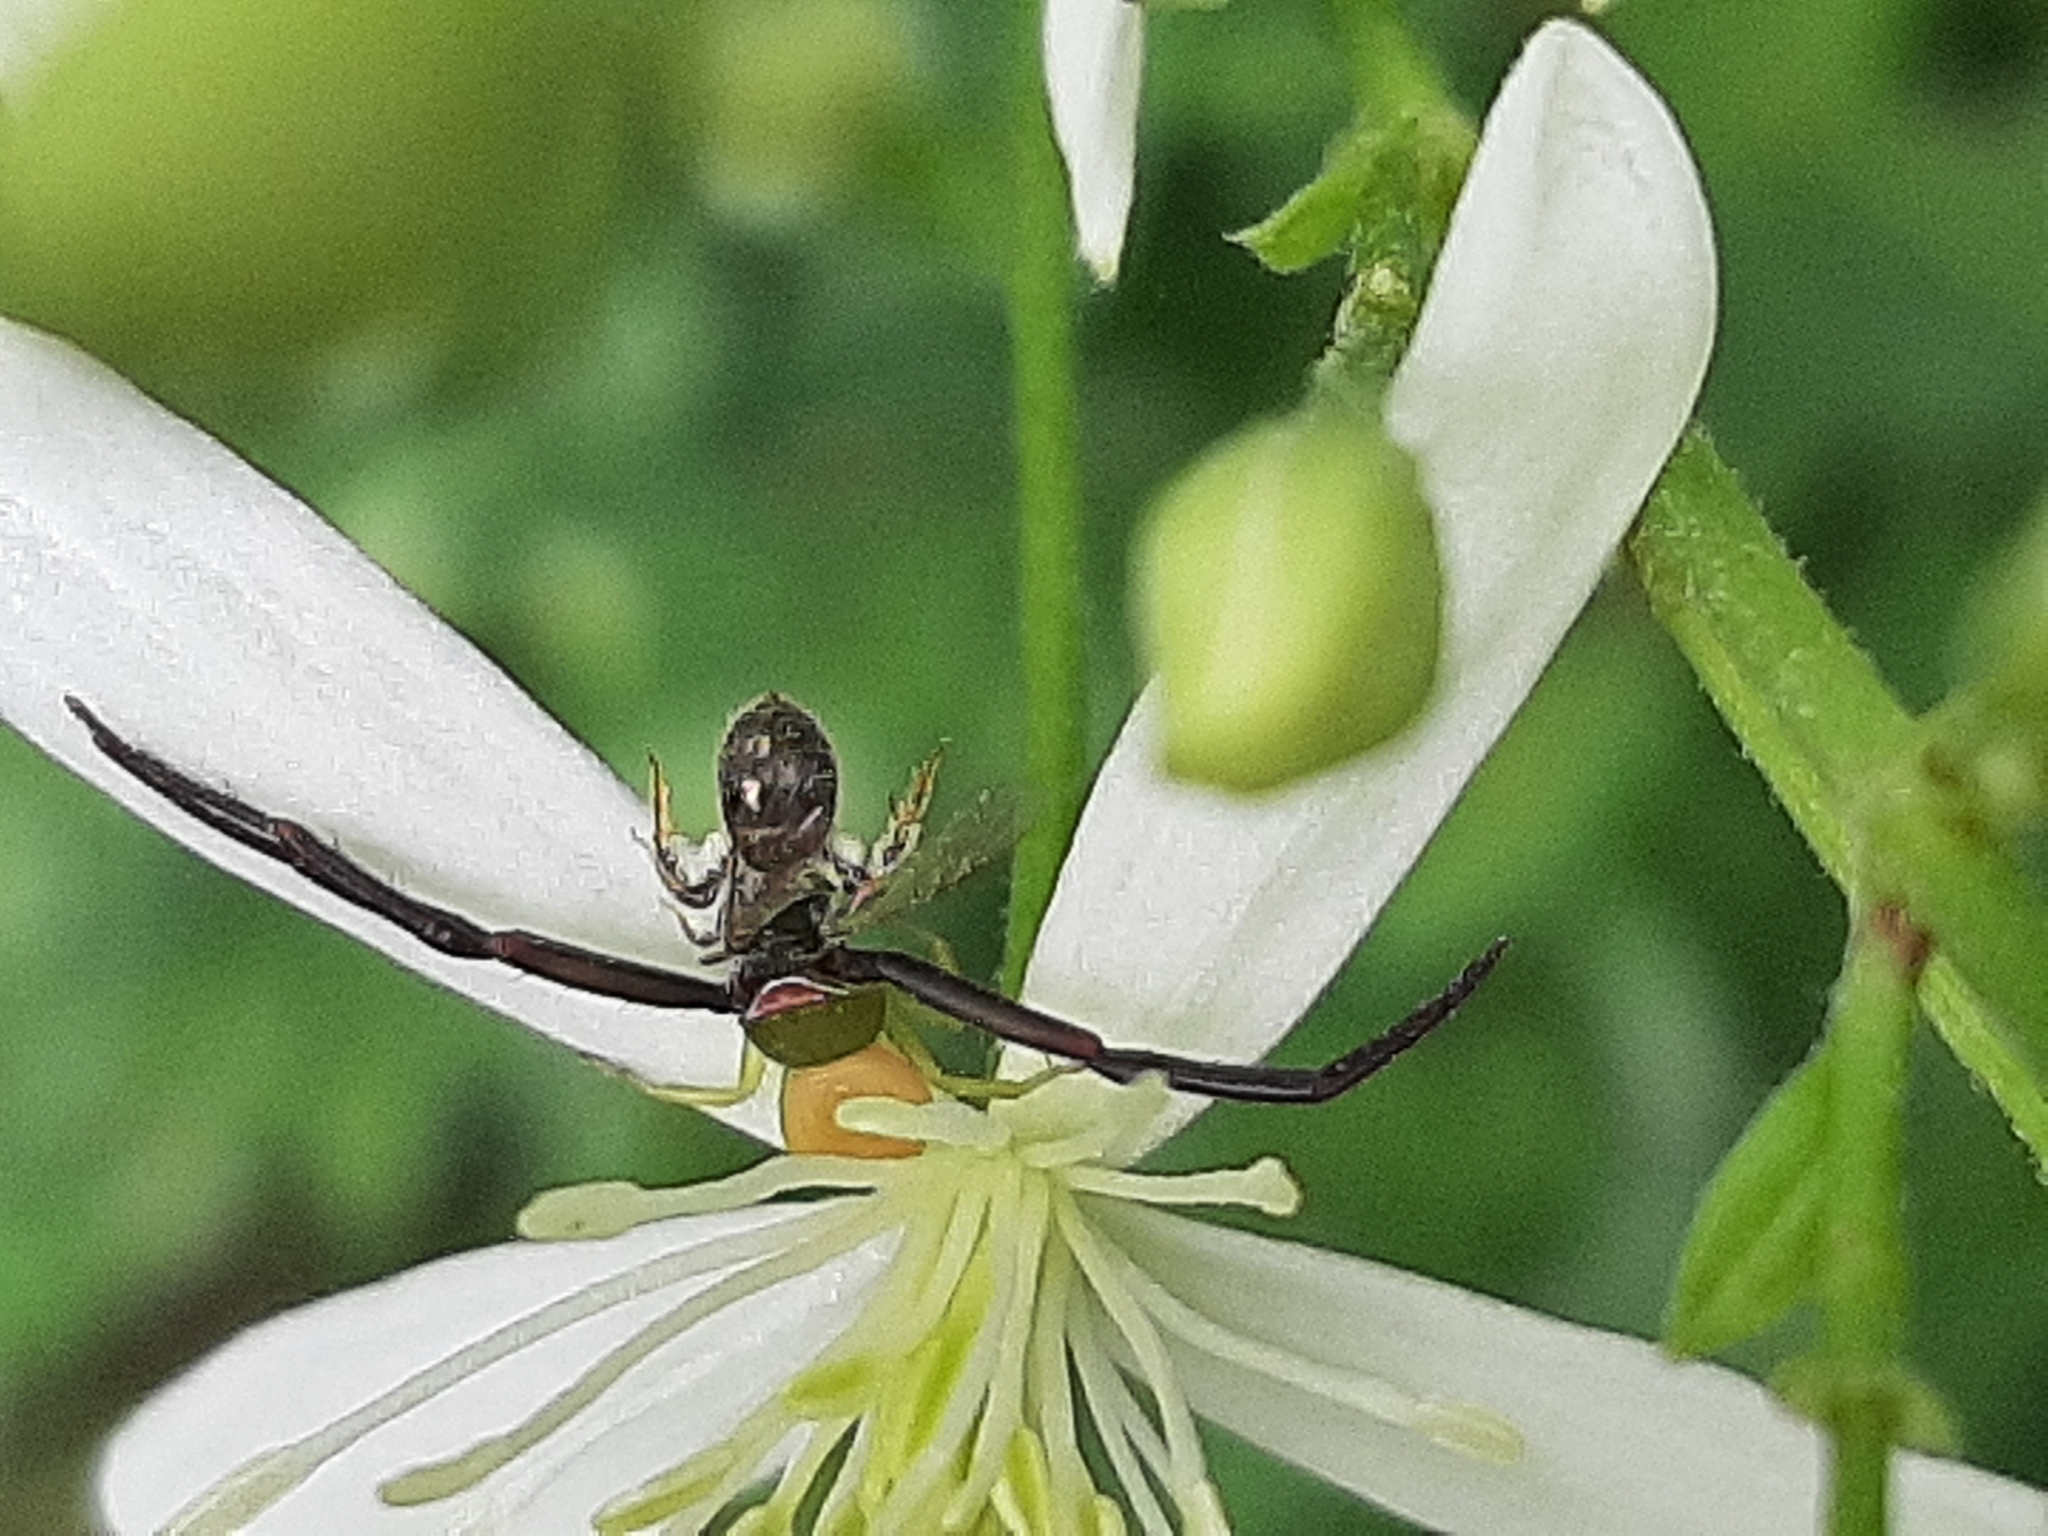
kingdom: Animalia
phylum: Arthropoda
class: Arachnida
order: Araneae
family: Thomisidae
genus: Misumenoides
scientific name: Misumenoides formosipes
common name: White-banded crab spider
